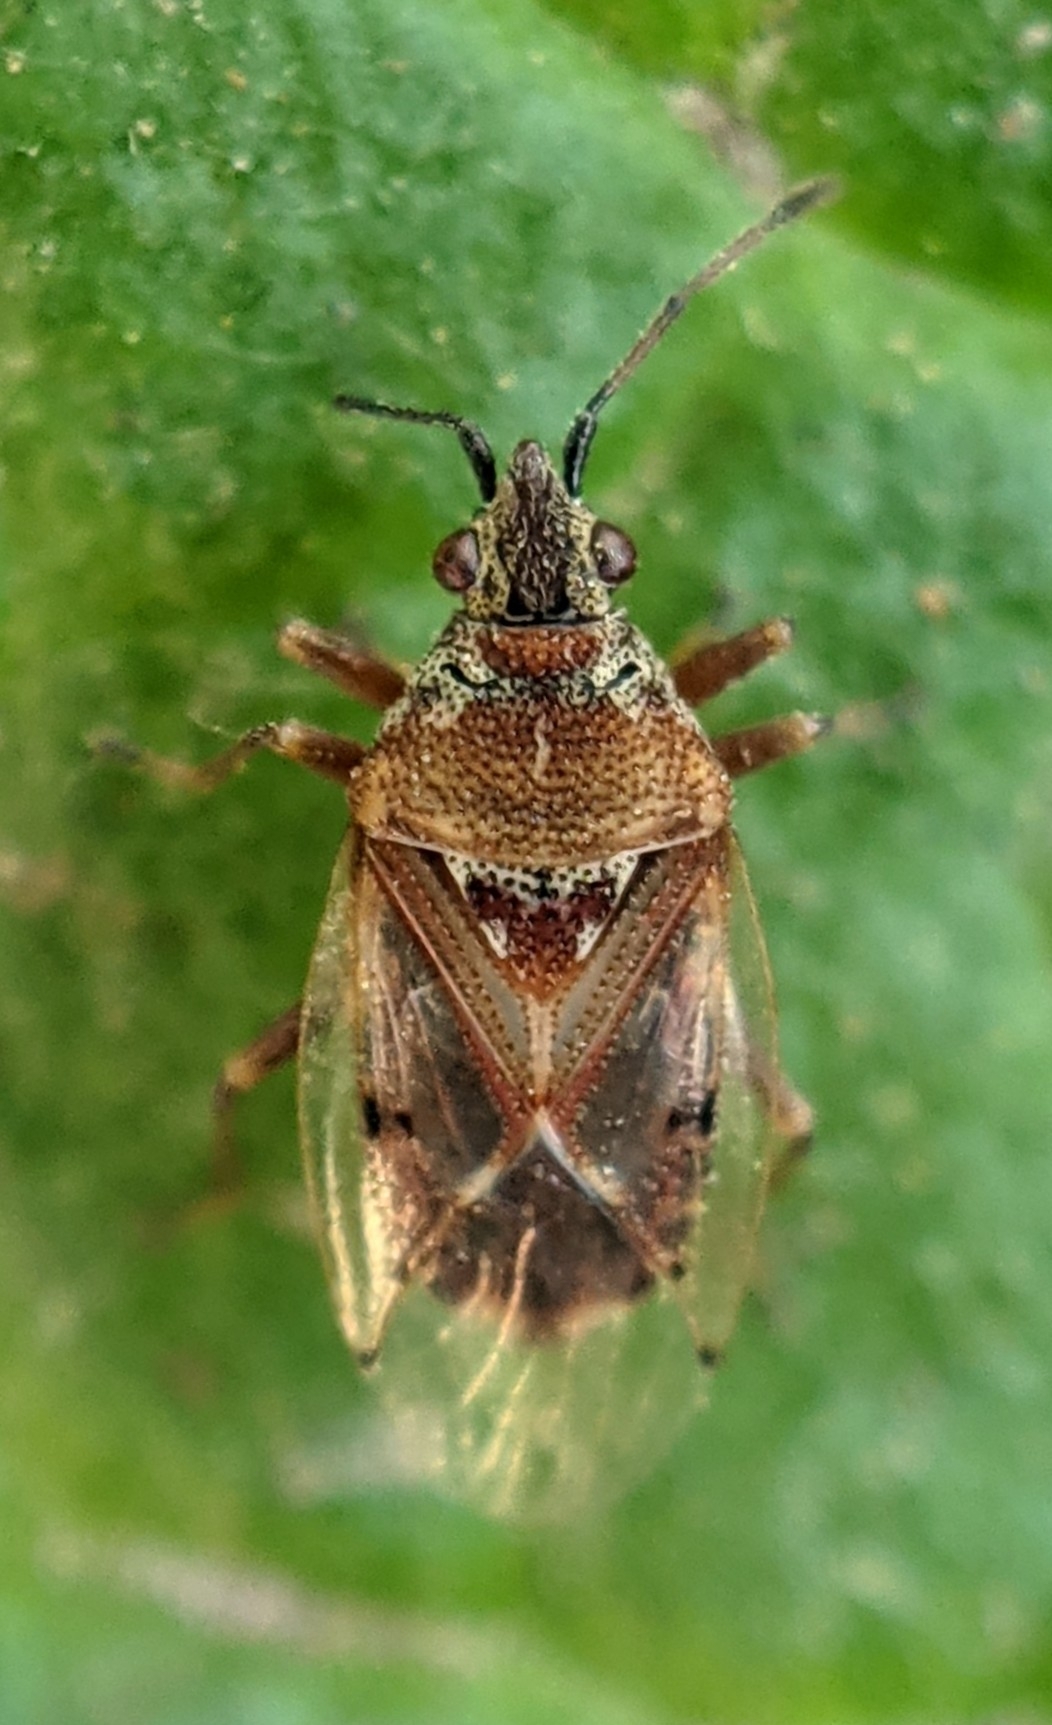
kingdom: Animalia
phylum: Arthropoda
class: Insecta
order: Hemiptera
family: Lygaeidae
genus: Kleidocerys
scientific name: Kleidocerys resedae
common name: Birch catkin bug
